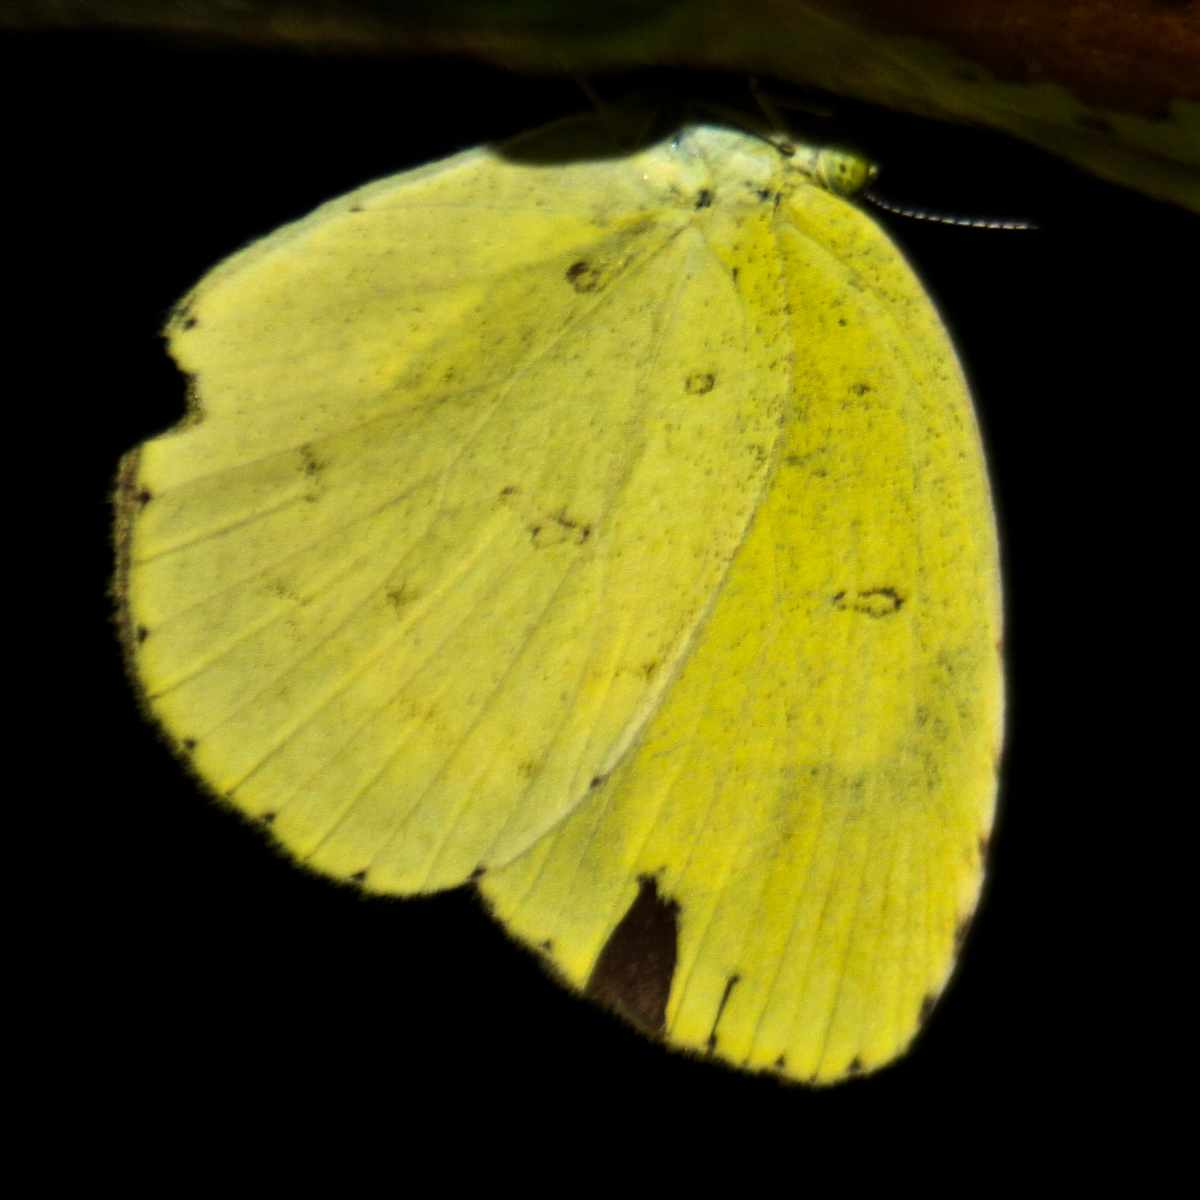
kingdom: Animalia
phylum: Arthropoda
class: Insecta
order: Lepidoptera
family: Pieridae
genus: Eurema
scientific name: Eurema hecabe
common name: Pale grass yellow
